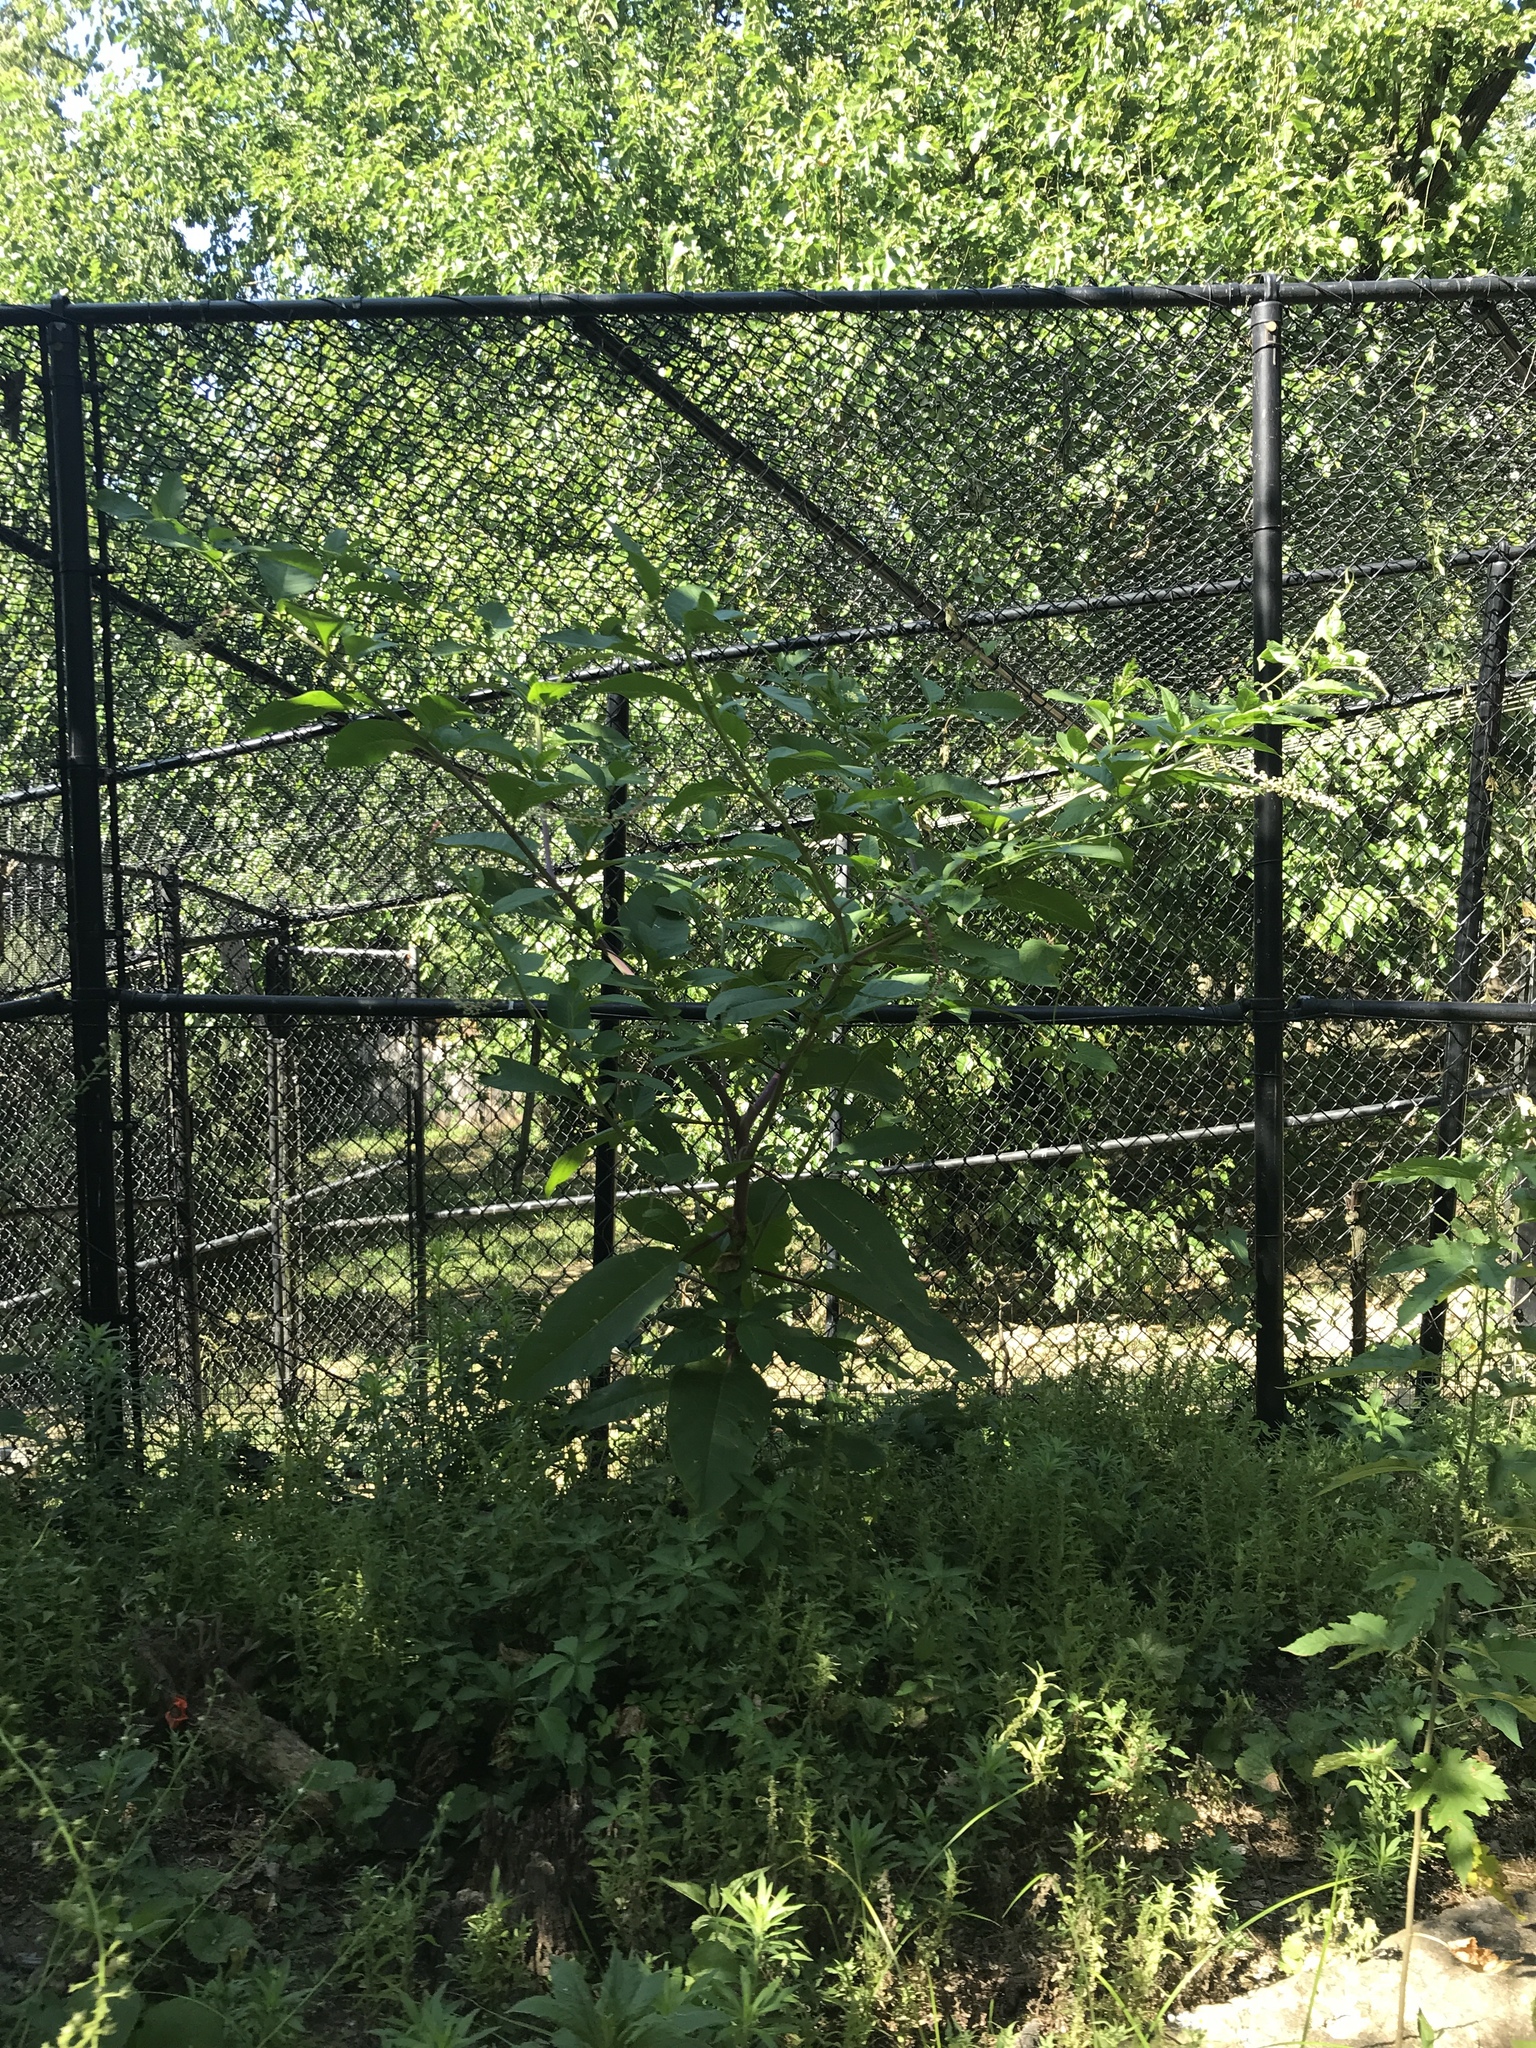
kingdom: Plantae
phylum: Tracheophyta
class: Magnoliopsida
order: Caryophyllales
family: Phytolaccaceae
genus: Phytolacca
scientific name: Phytolacca americana
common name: American pokeweed
